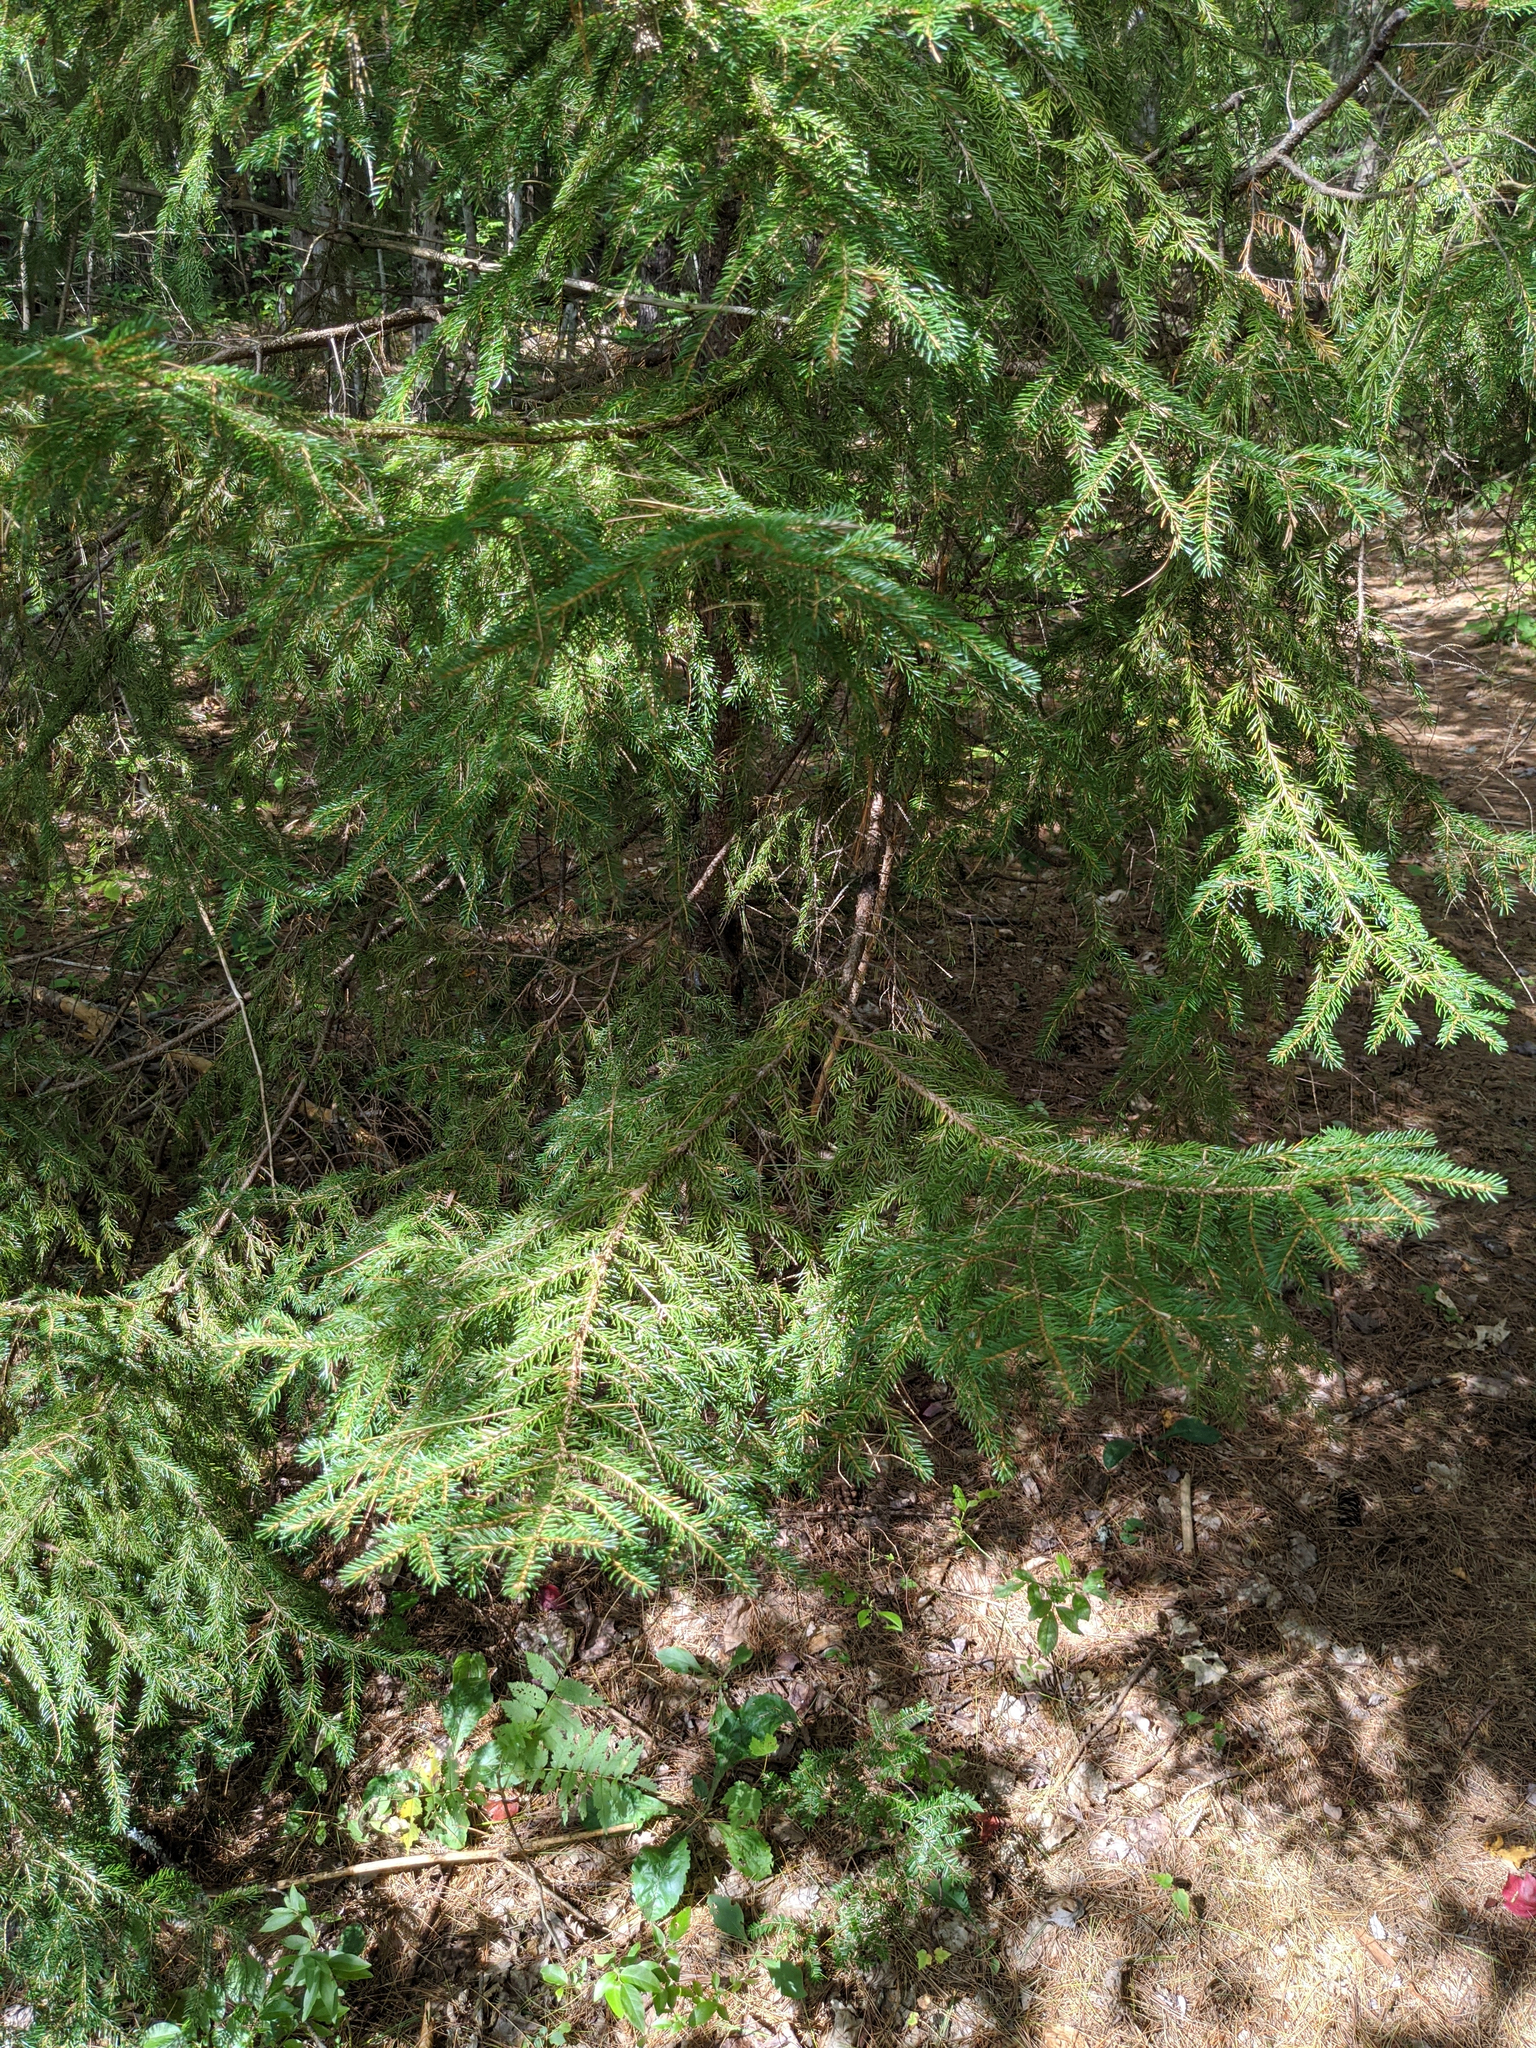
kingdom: Plantae
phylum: Tracheophyta
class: Pinopsida
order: Pinales
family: Pinaceae
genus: Picea
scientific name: Picea rubens
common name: Red spruce
